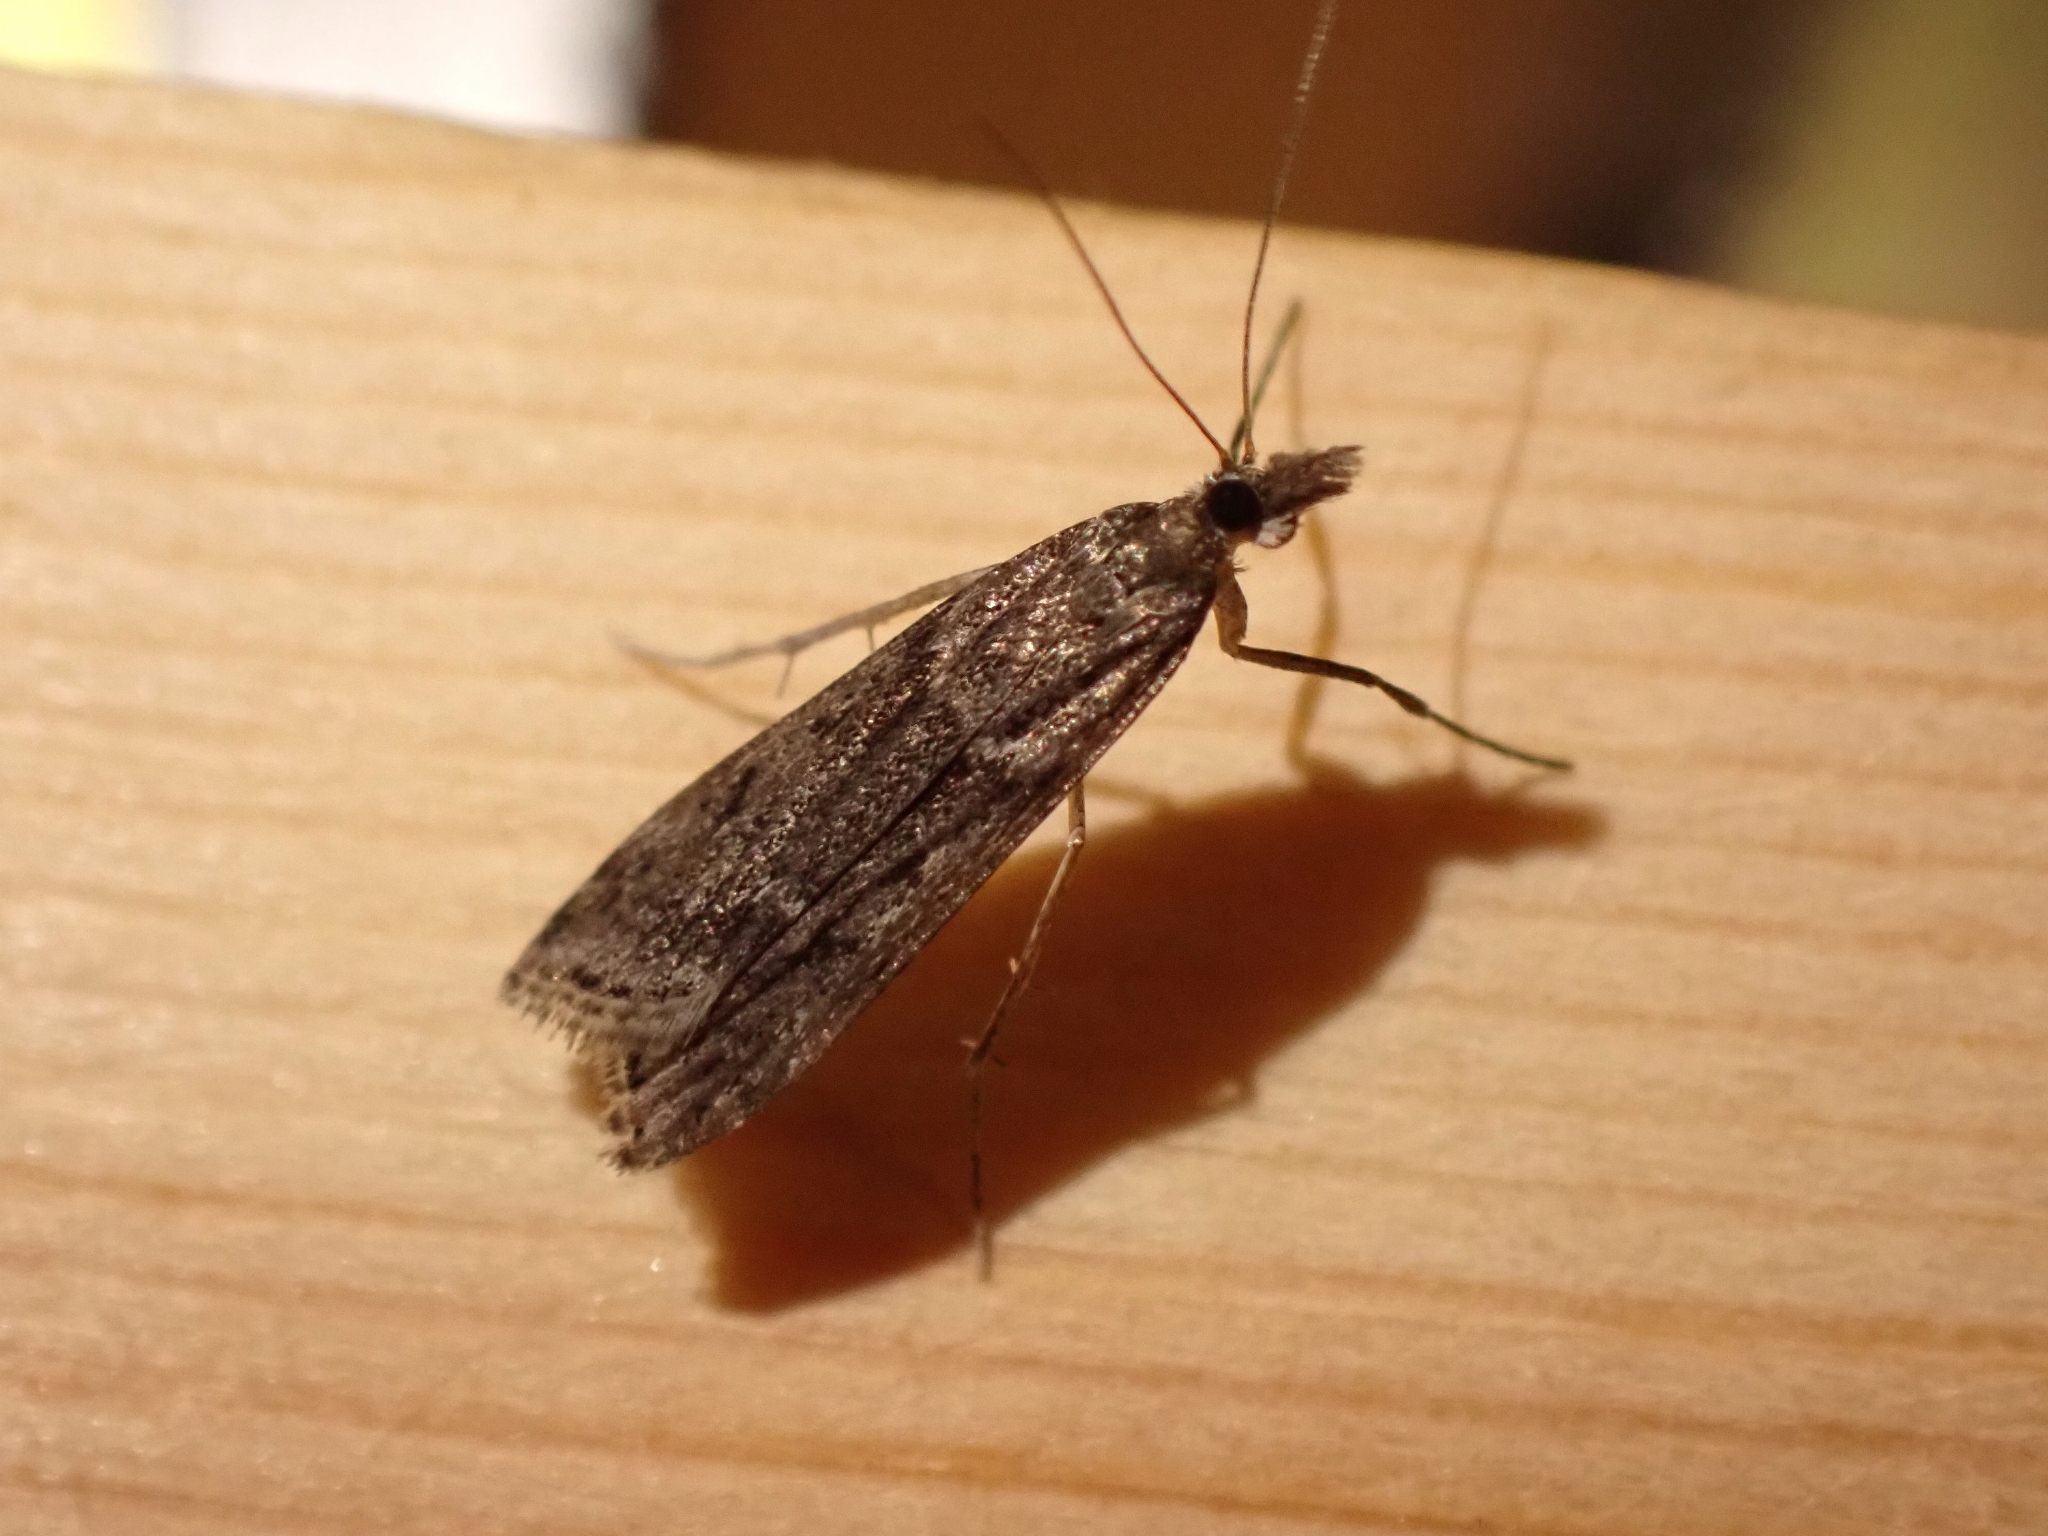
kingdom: Animalia
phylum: Arthropoda
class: Insecta
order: Lepidoptera
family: Crambidae
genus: Eudonia
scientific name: Eudonia angustea
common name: Narrow-winged grey
